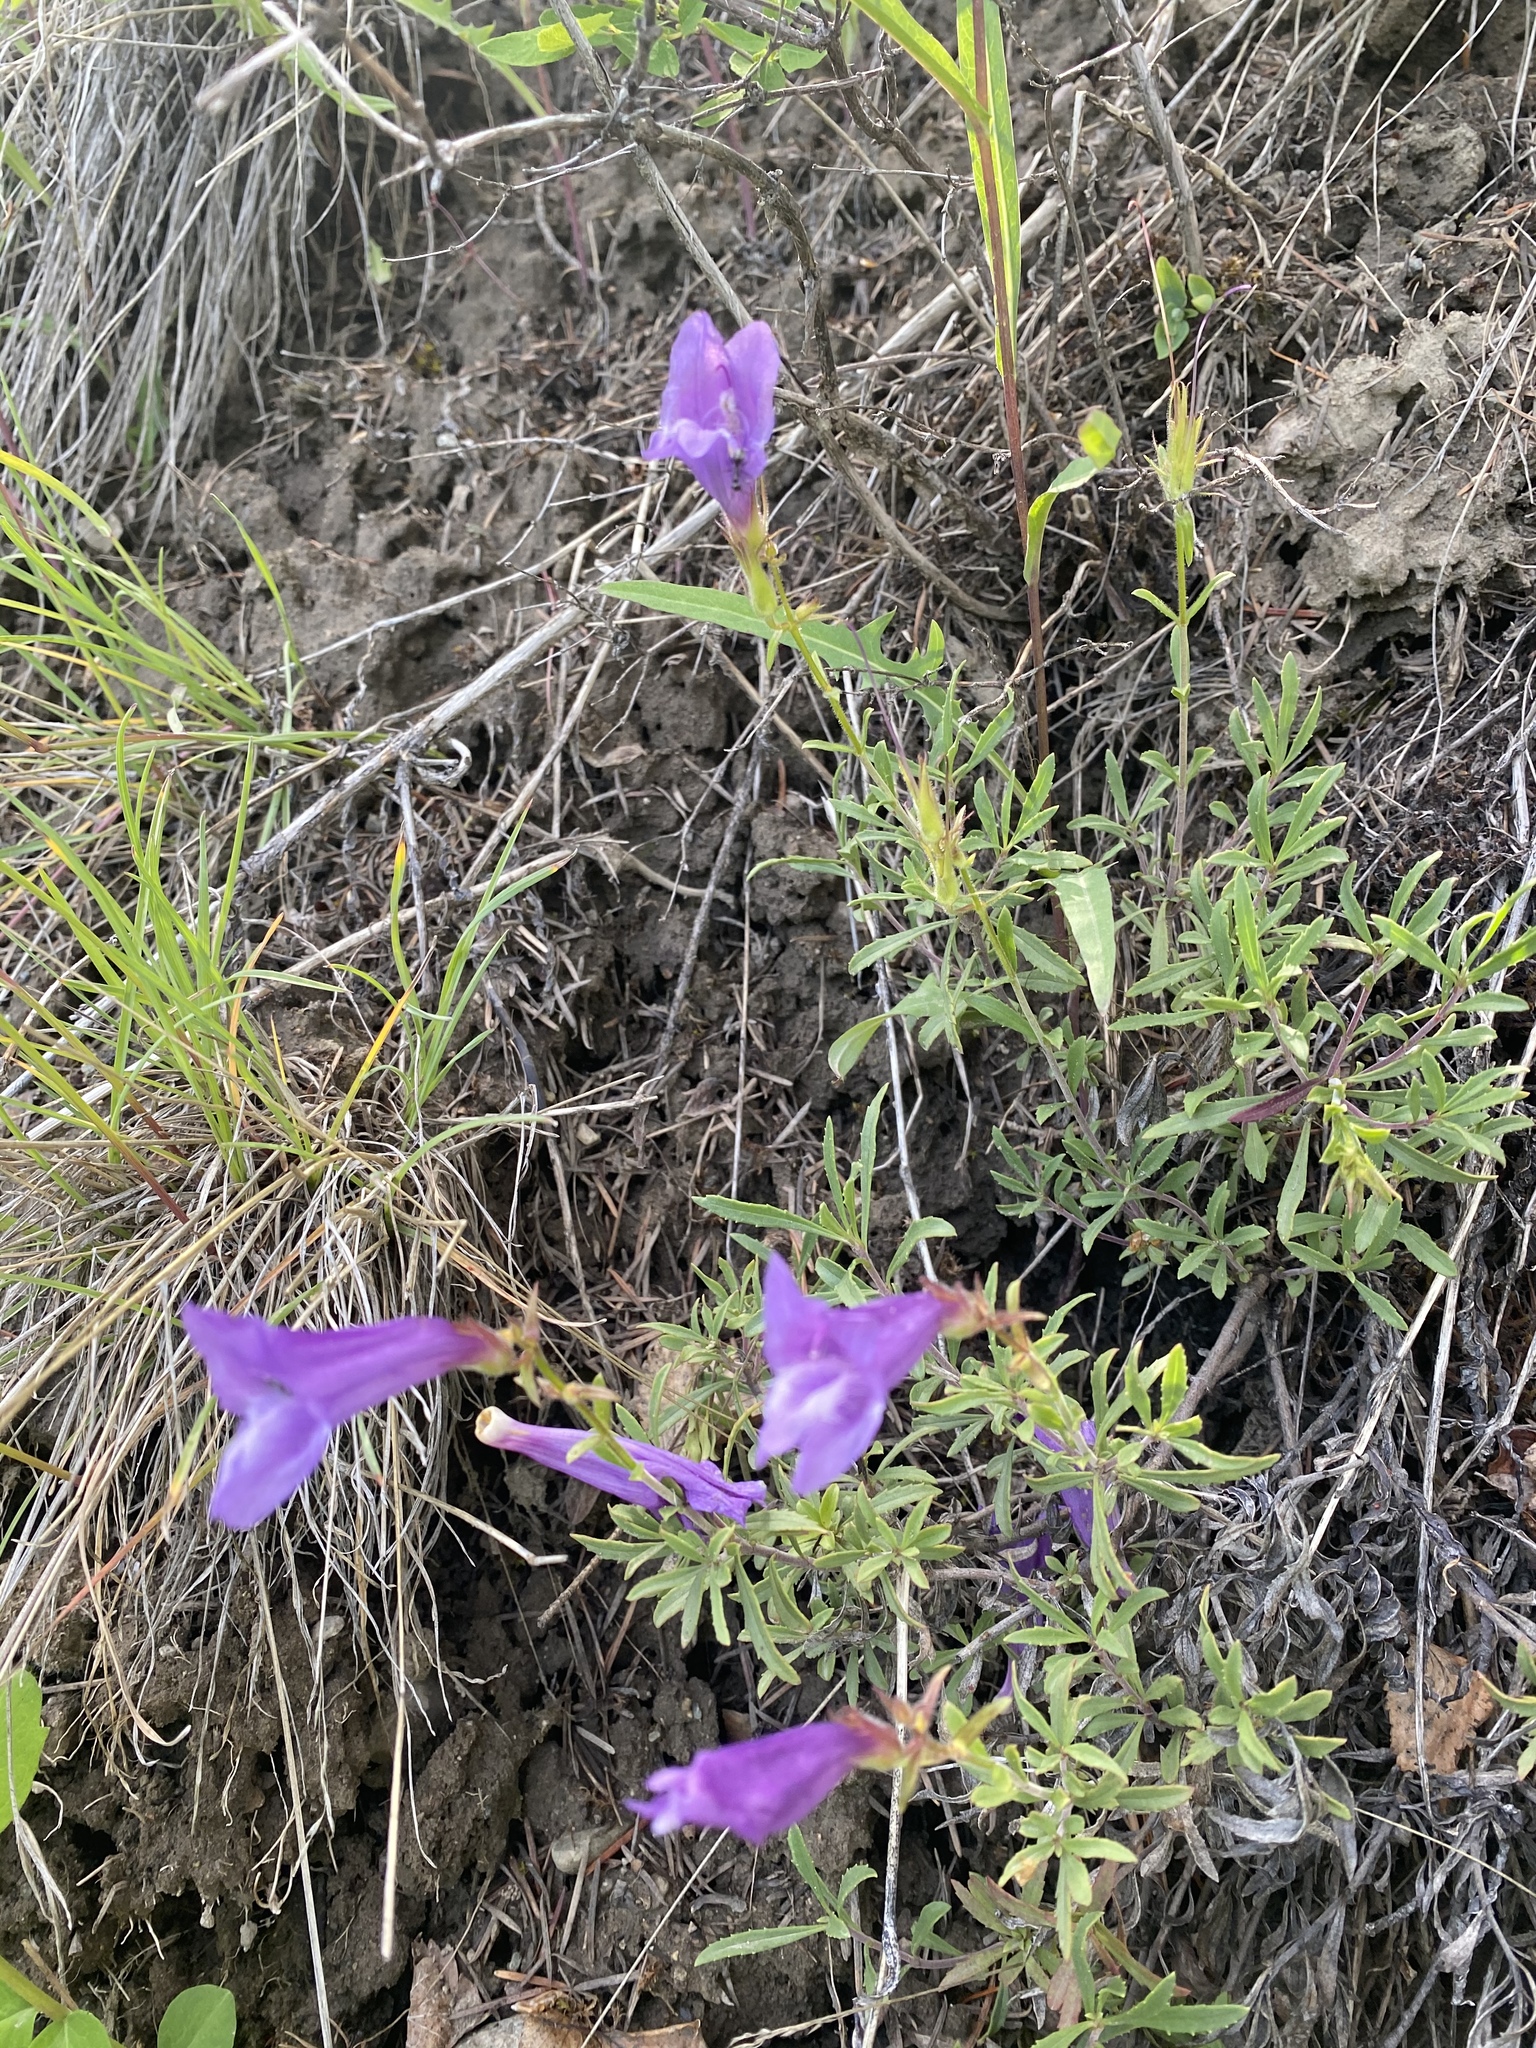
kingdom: Plantae
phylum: Tracheophyta
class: Magnoliopsida
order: Lamiales
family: Plantaginaceae
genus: Penstemon
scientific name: Penstemon fruticosus
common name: Bush penstemon
